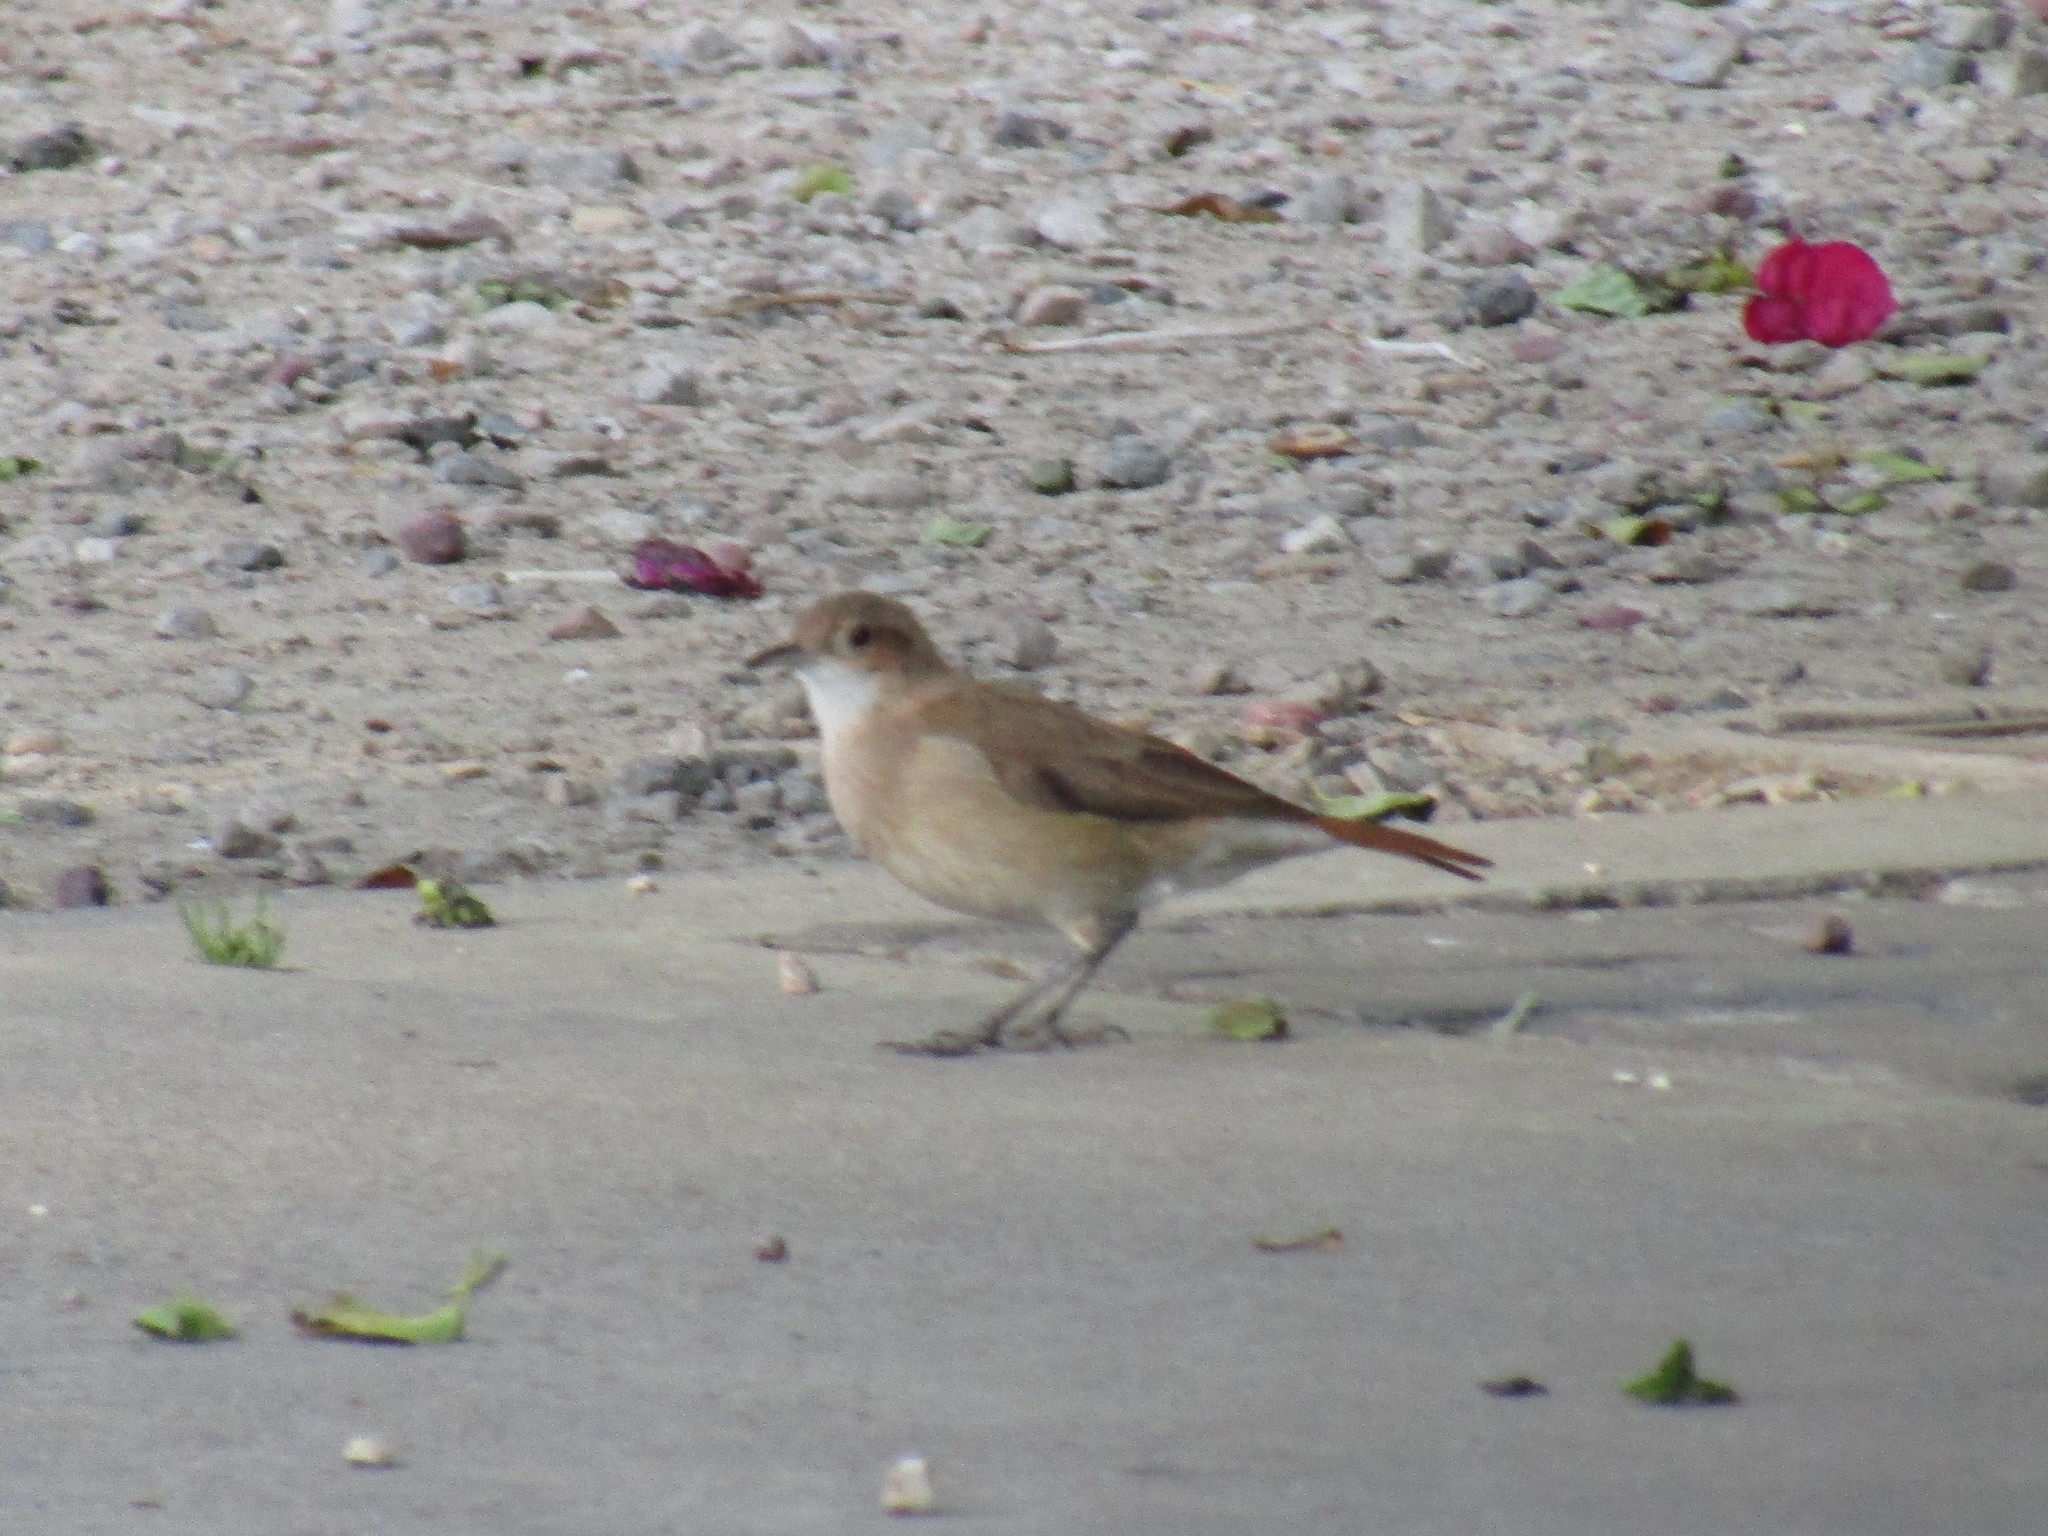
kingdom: Animalia
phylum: Chordata
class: Aves
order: Passeriformes
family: Furnariidae
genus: Furnarius
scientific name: Furnarius rufus
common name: Rufous hornero
